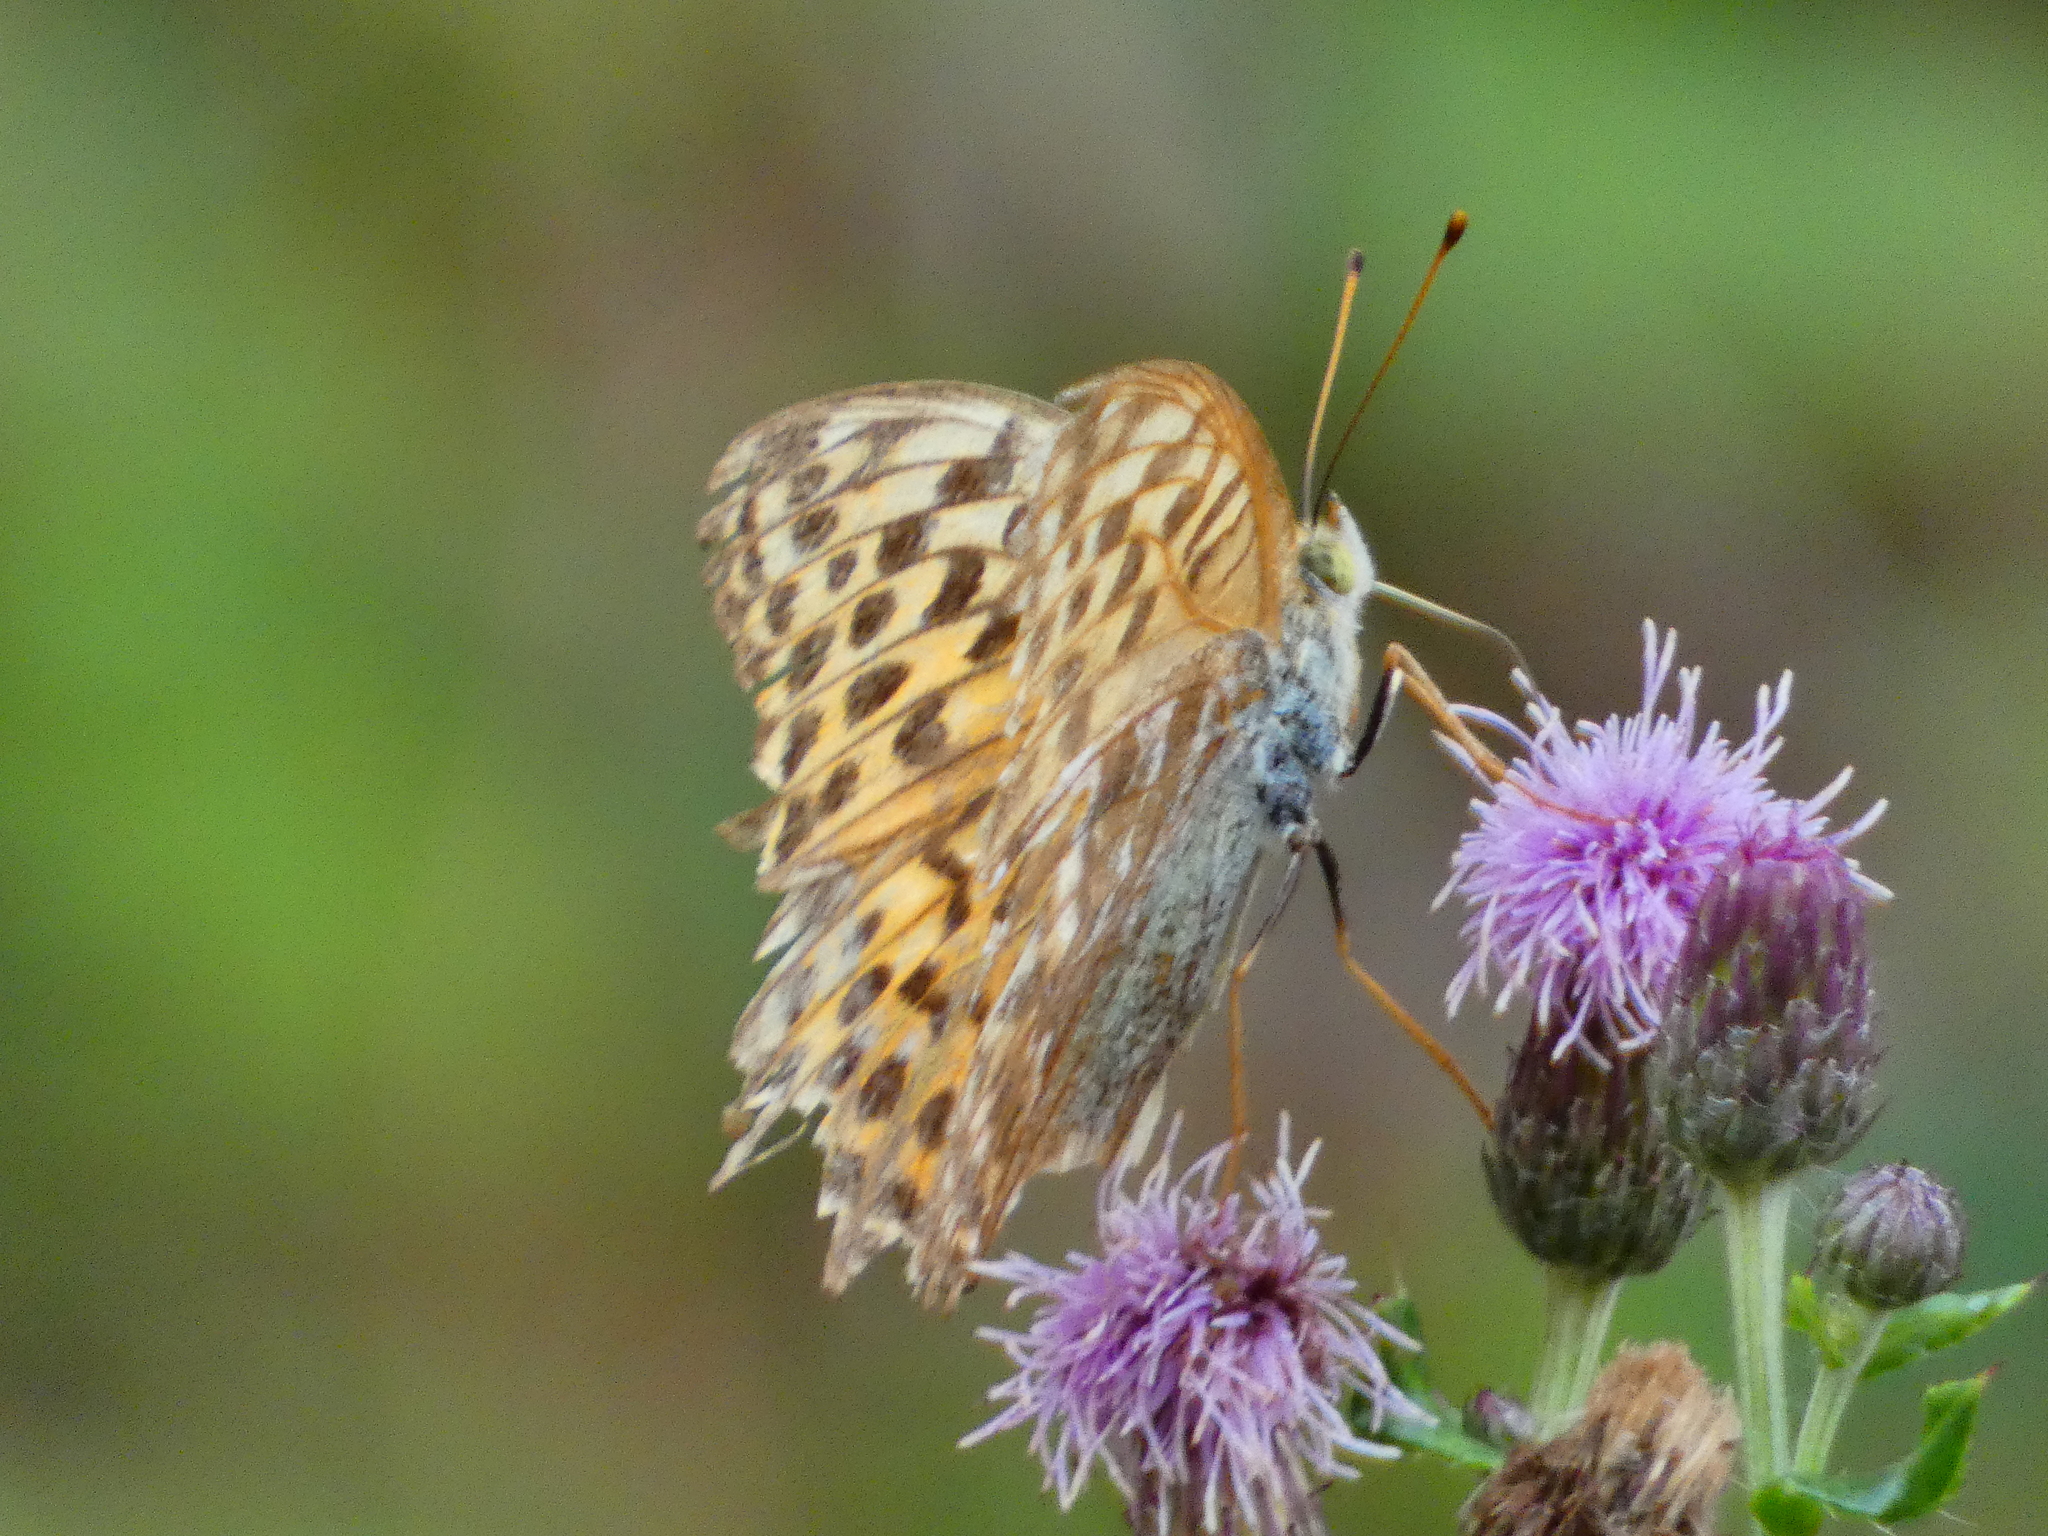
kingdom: Animalia
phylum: Arthropoda
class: Insecta
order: Lepidoptera
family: Nymphalidae
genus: Argynnis
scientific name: Argynnis paphia
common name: Silver-washed fritillary
